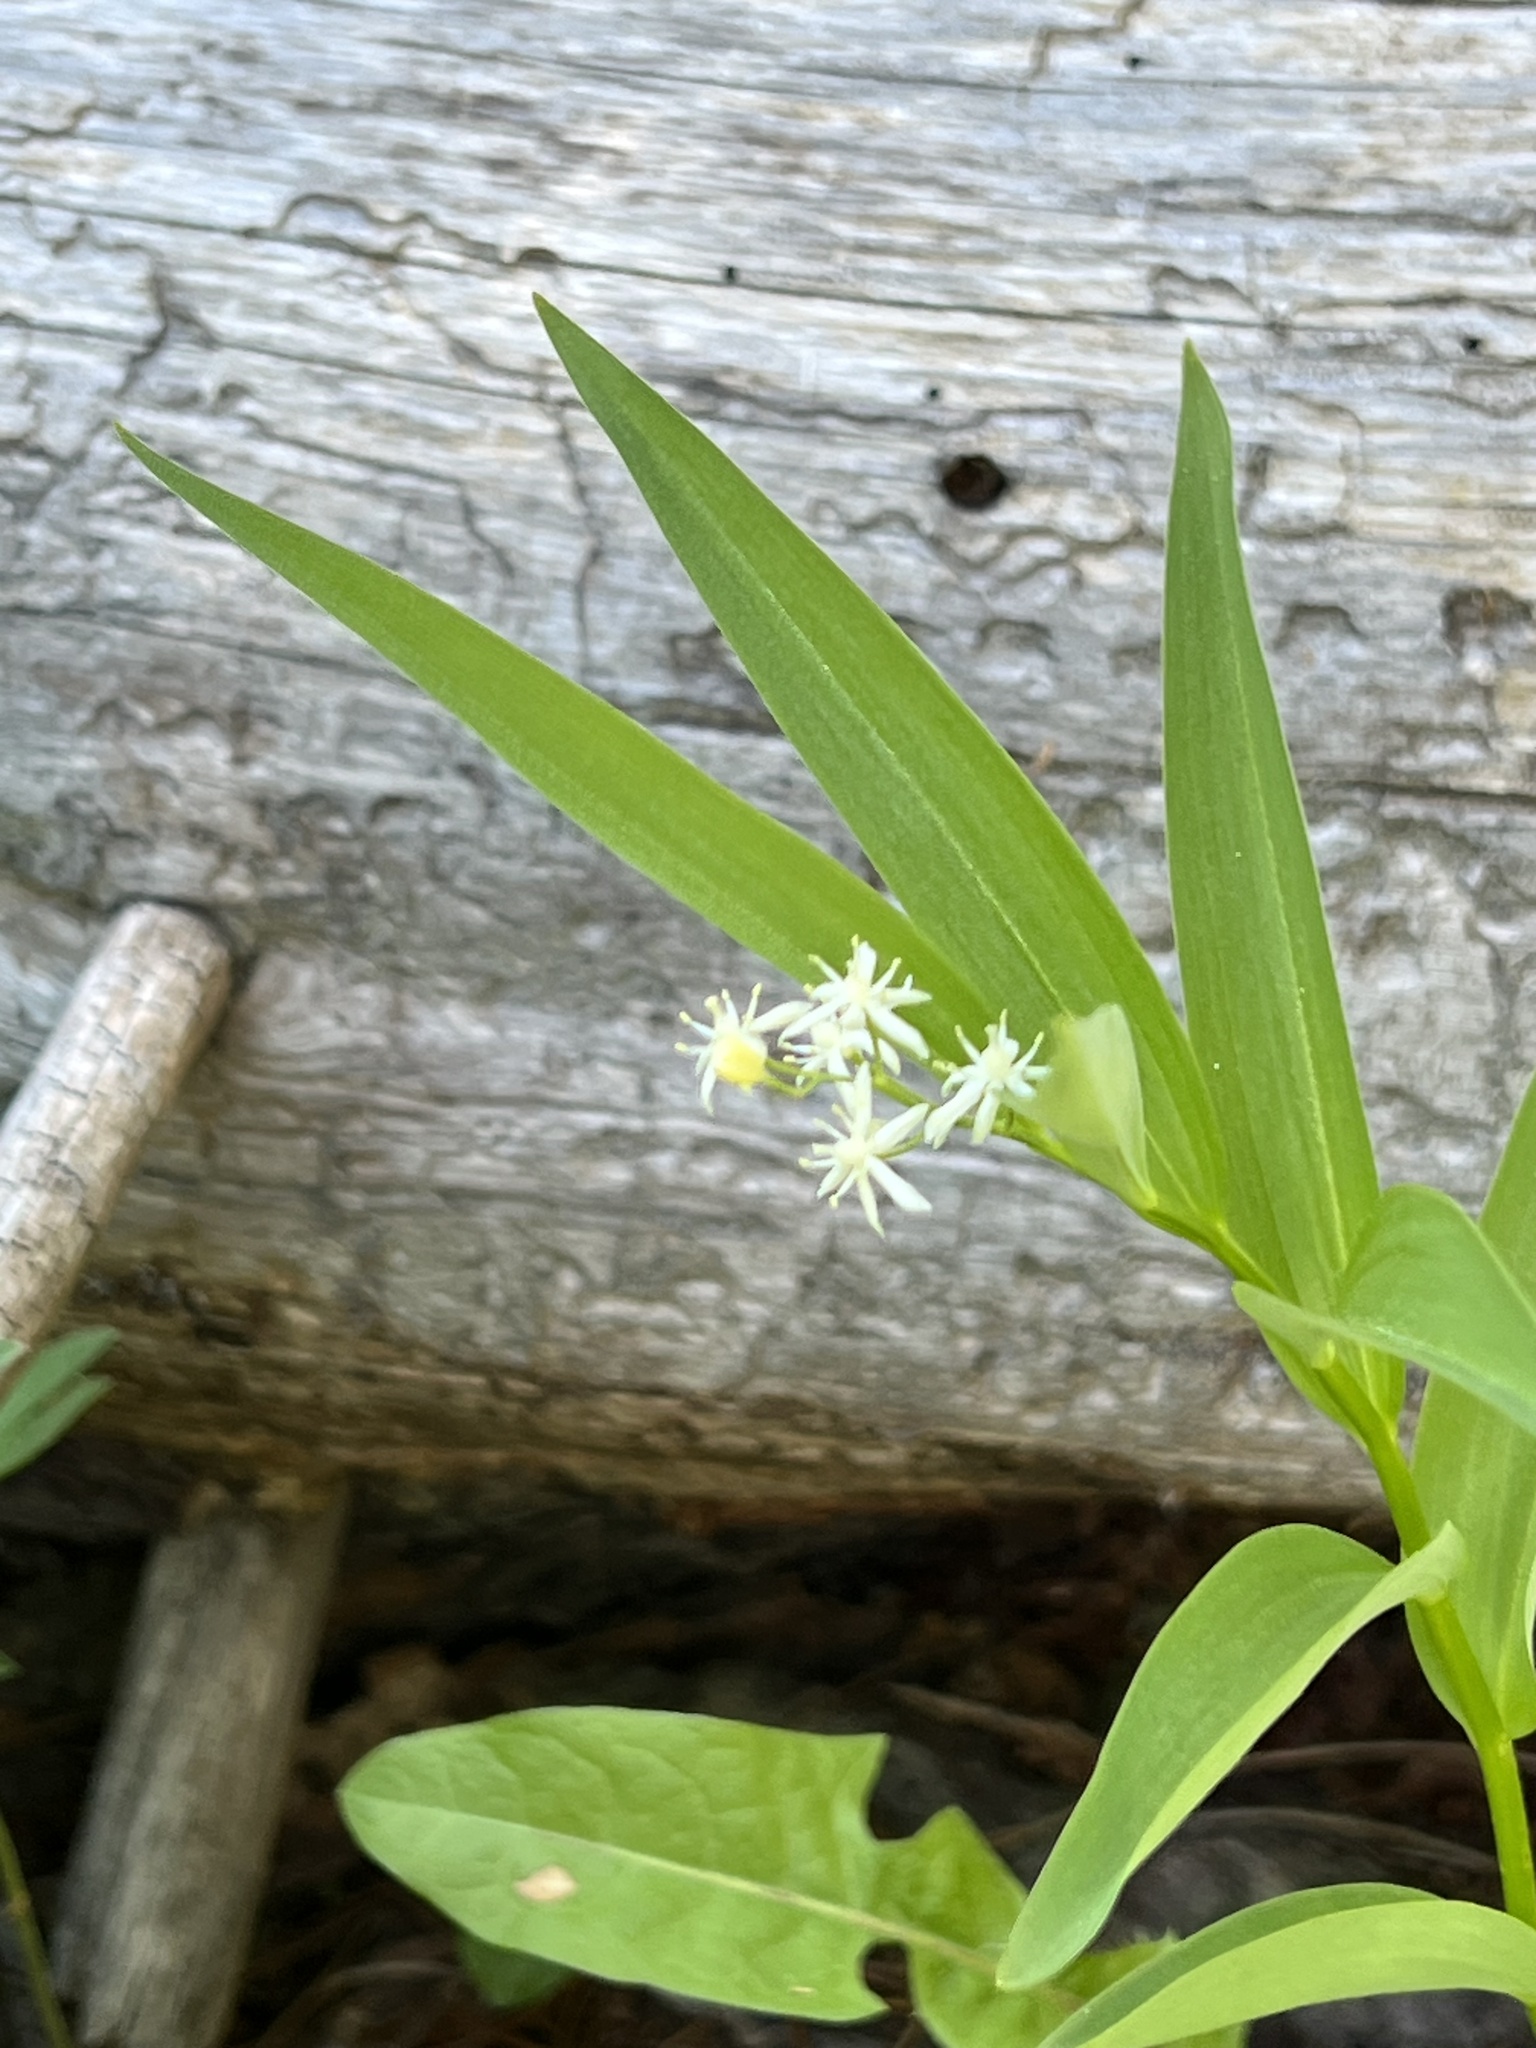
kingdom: Plantae
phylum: Tracheophyta
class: Liliopsida
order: Asparagales
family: Asparagaceae
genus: Maianthemum
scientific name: Maianthemum stellatum
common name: Little false solomon's seal
